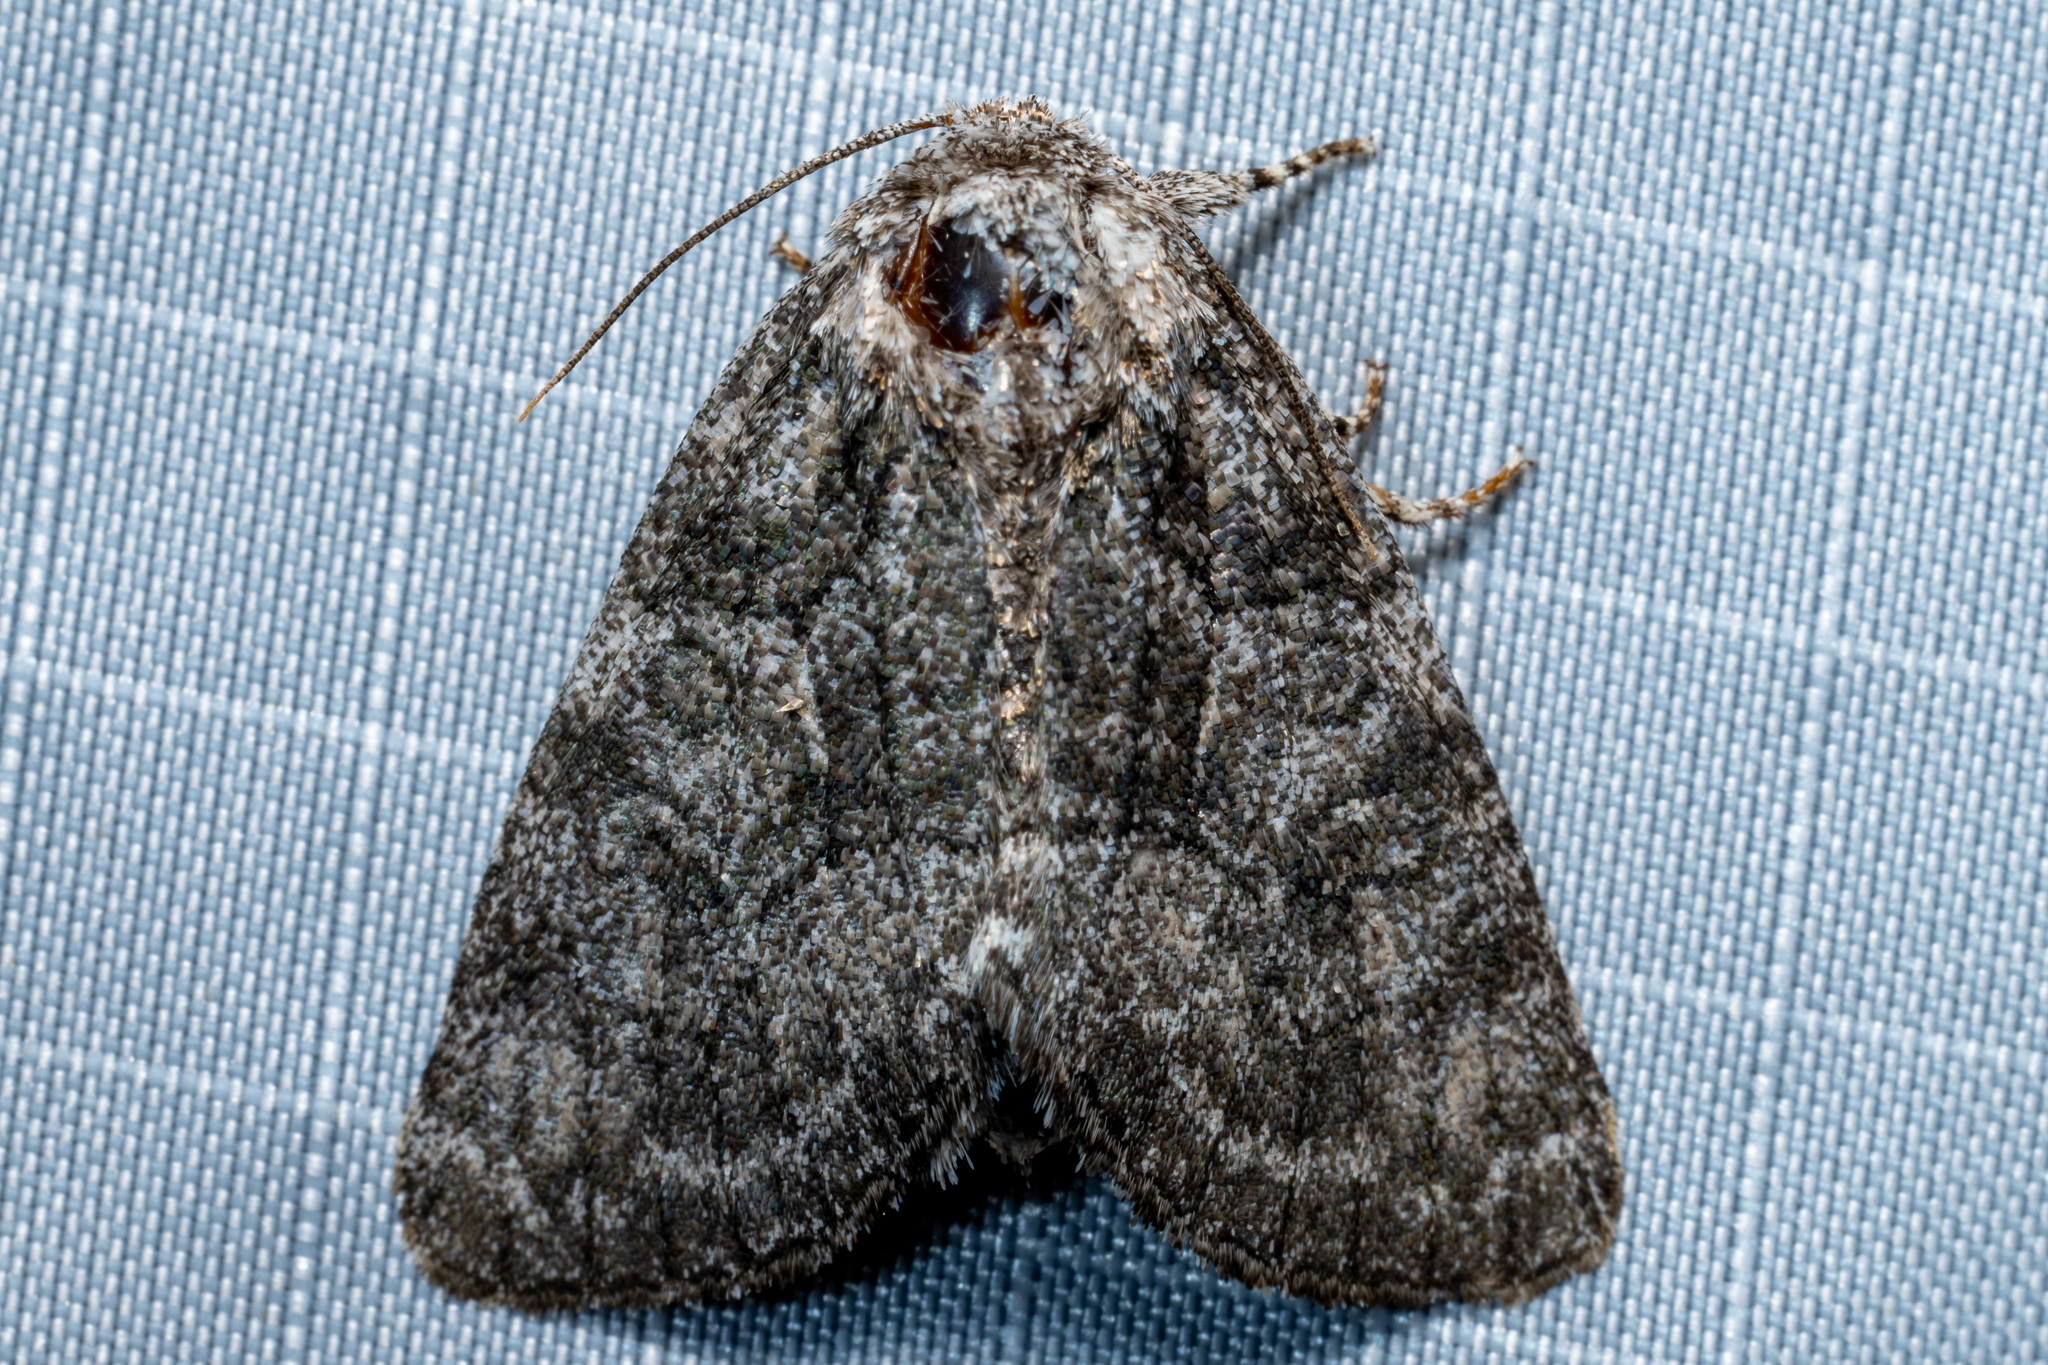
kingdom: Animalia
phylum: Arthropoda
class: Insecta
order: Lepidoptera
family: Noctuidae
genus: Raphia
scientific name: Raphia frater
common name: Brother
